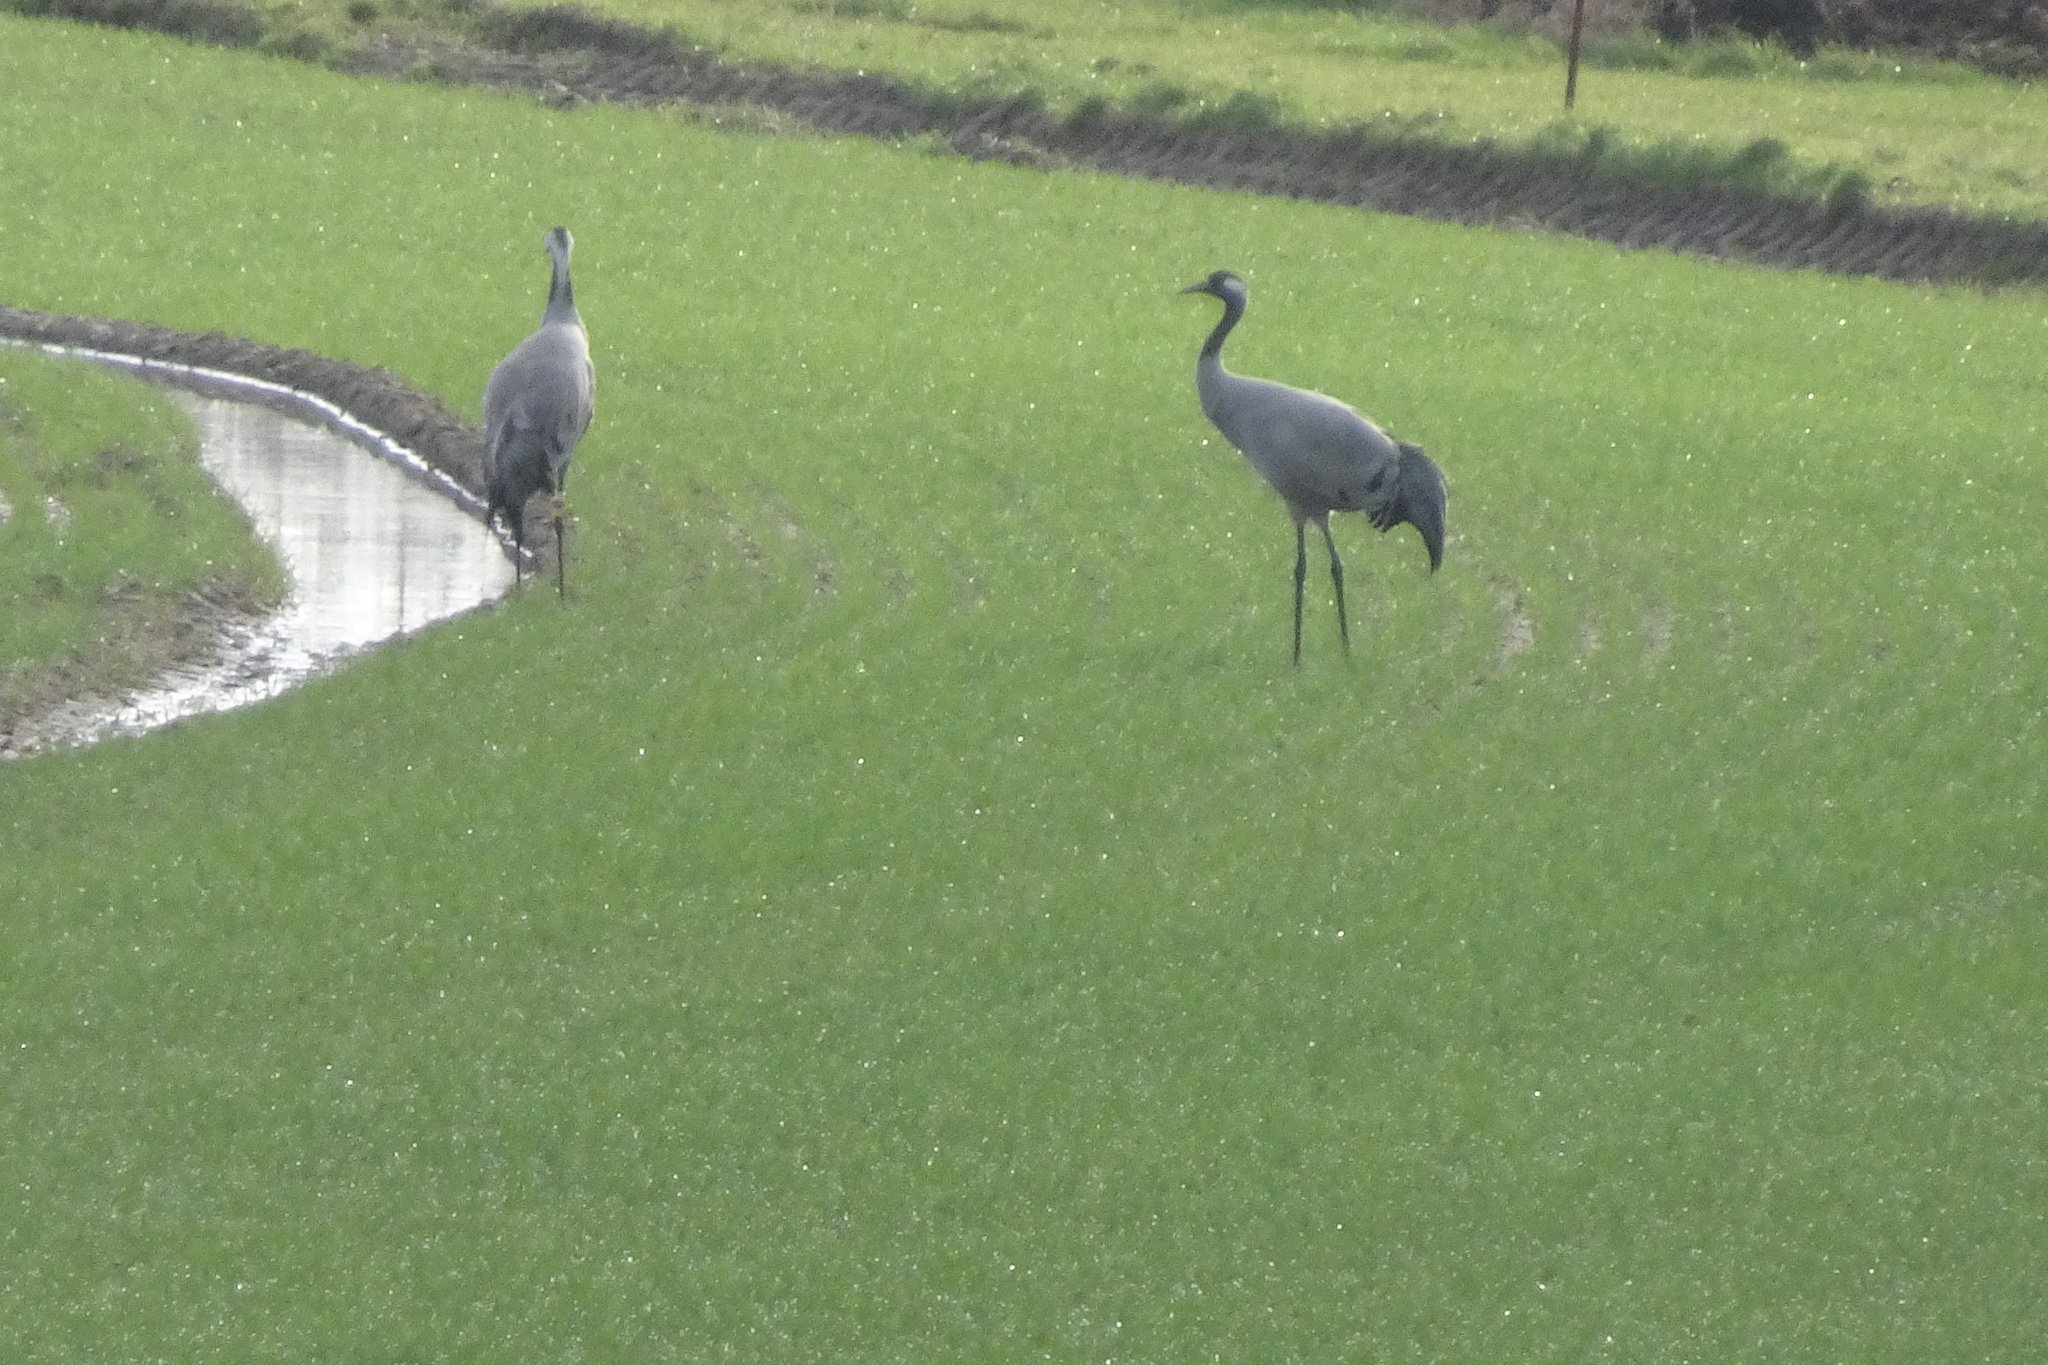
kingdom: Animalia
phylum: Chordata
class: Aves
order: Gruiformes
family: Gruidae
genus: Grus
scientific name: Grus grus
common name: Common crane
